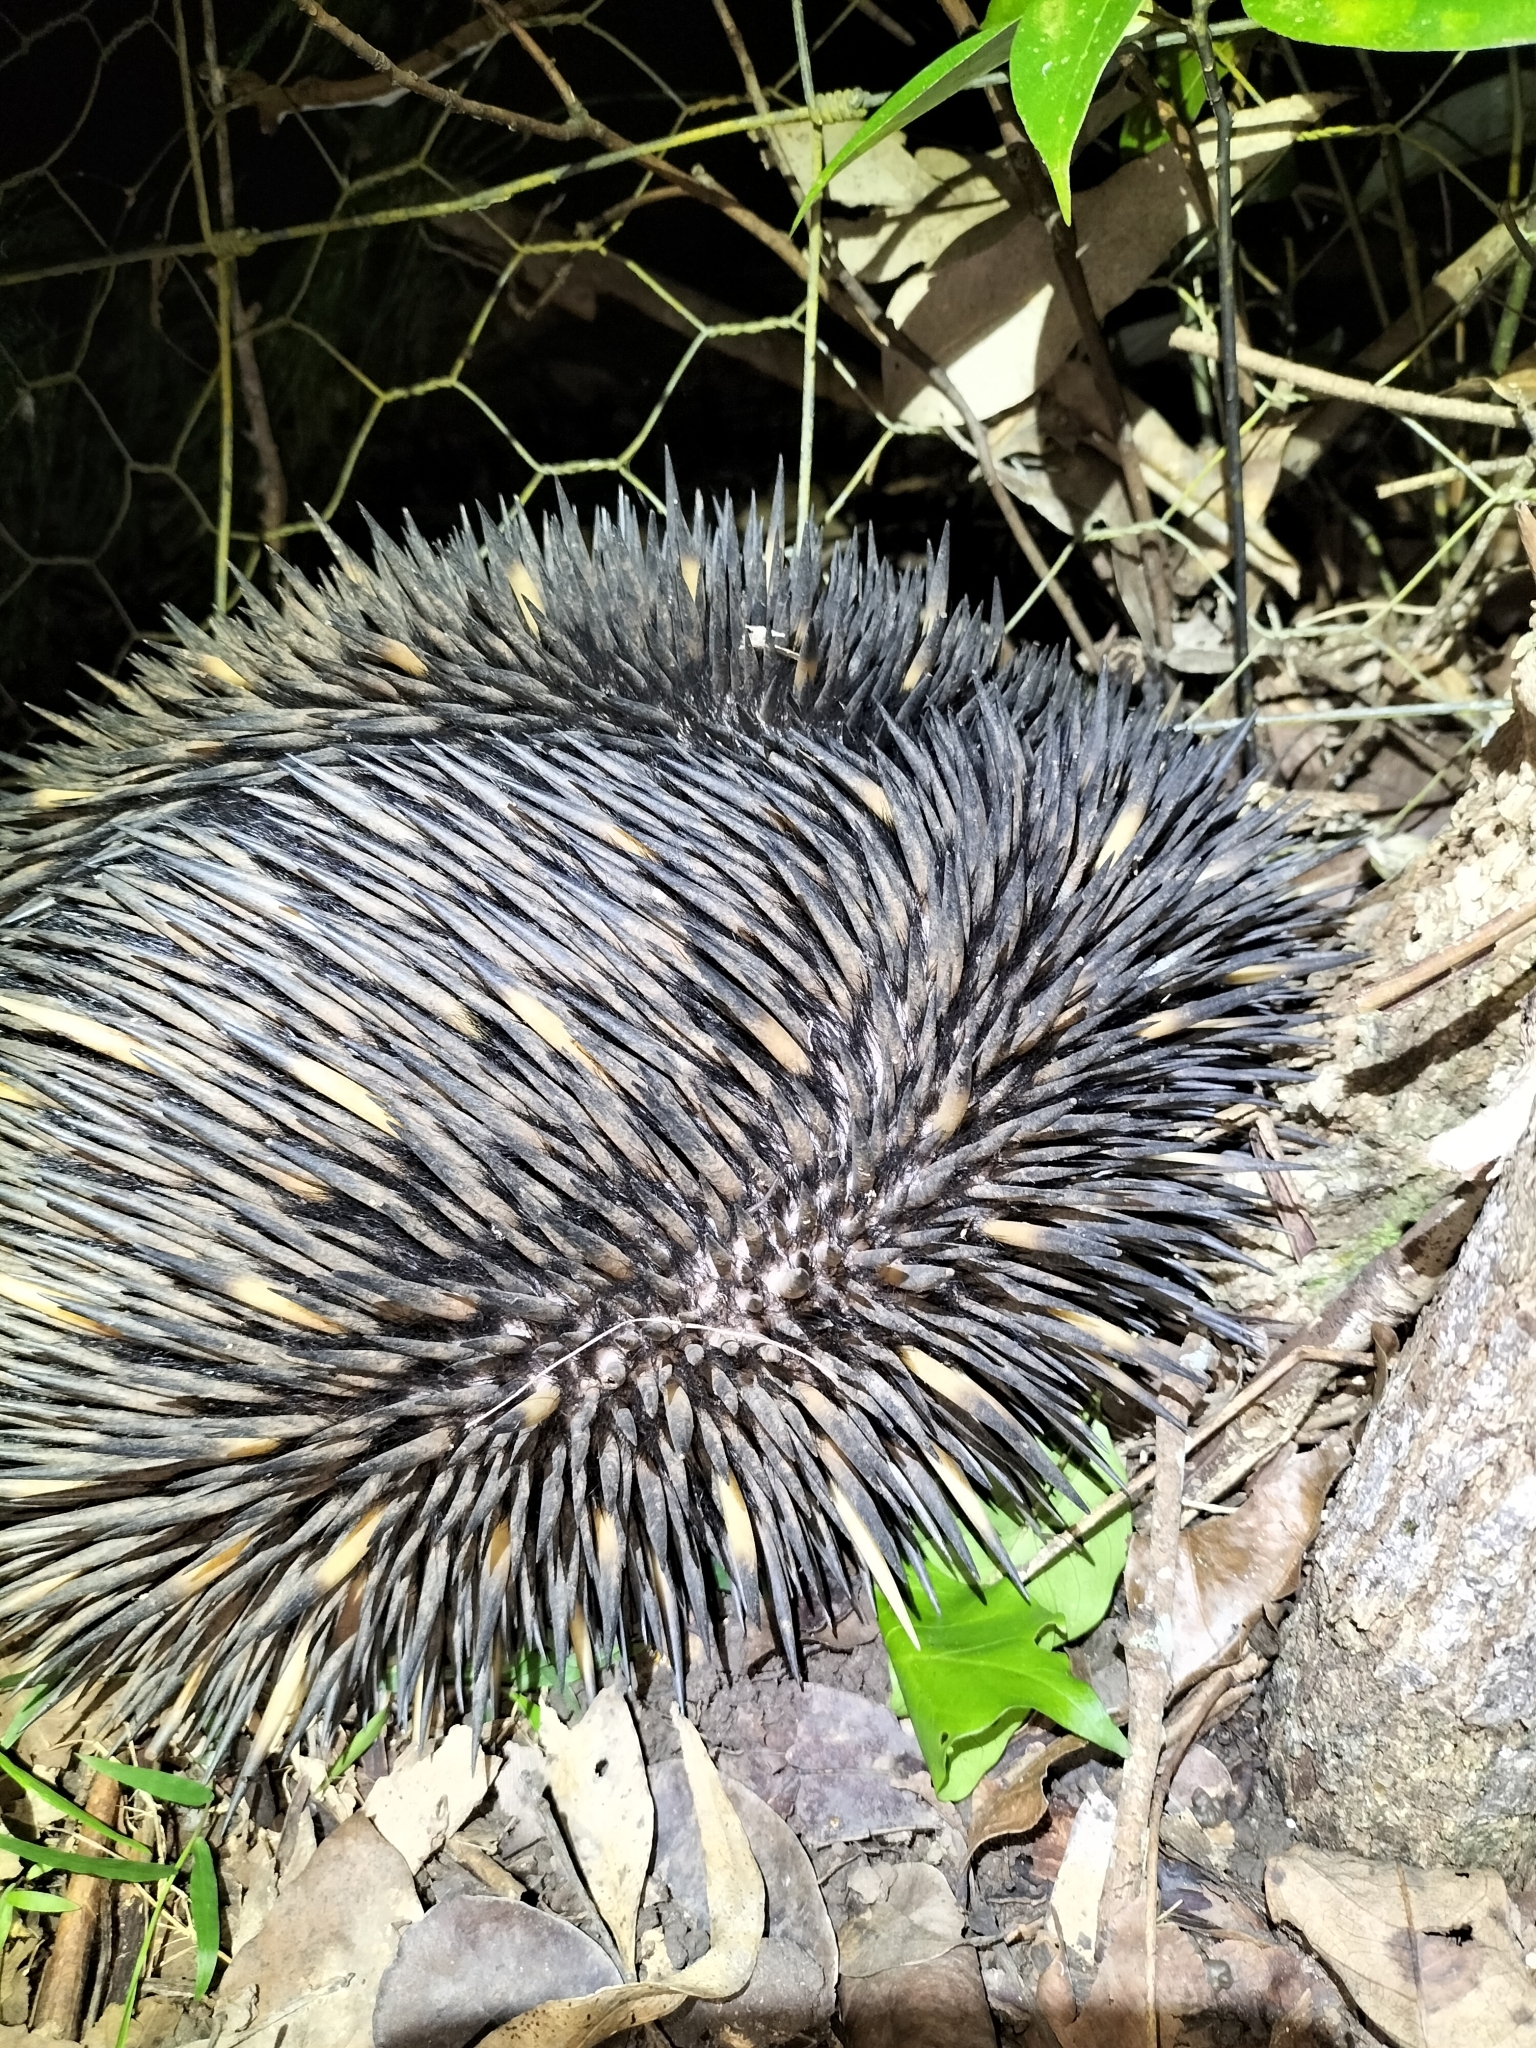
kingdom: Animalia
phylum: Chordata
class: Mammalia
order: Monotremata
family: Tachyglossidae
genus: Tachyglossus
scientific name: Tachyglossus aculeatus
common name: Short-beaked echidna
